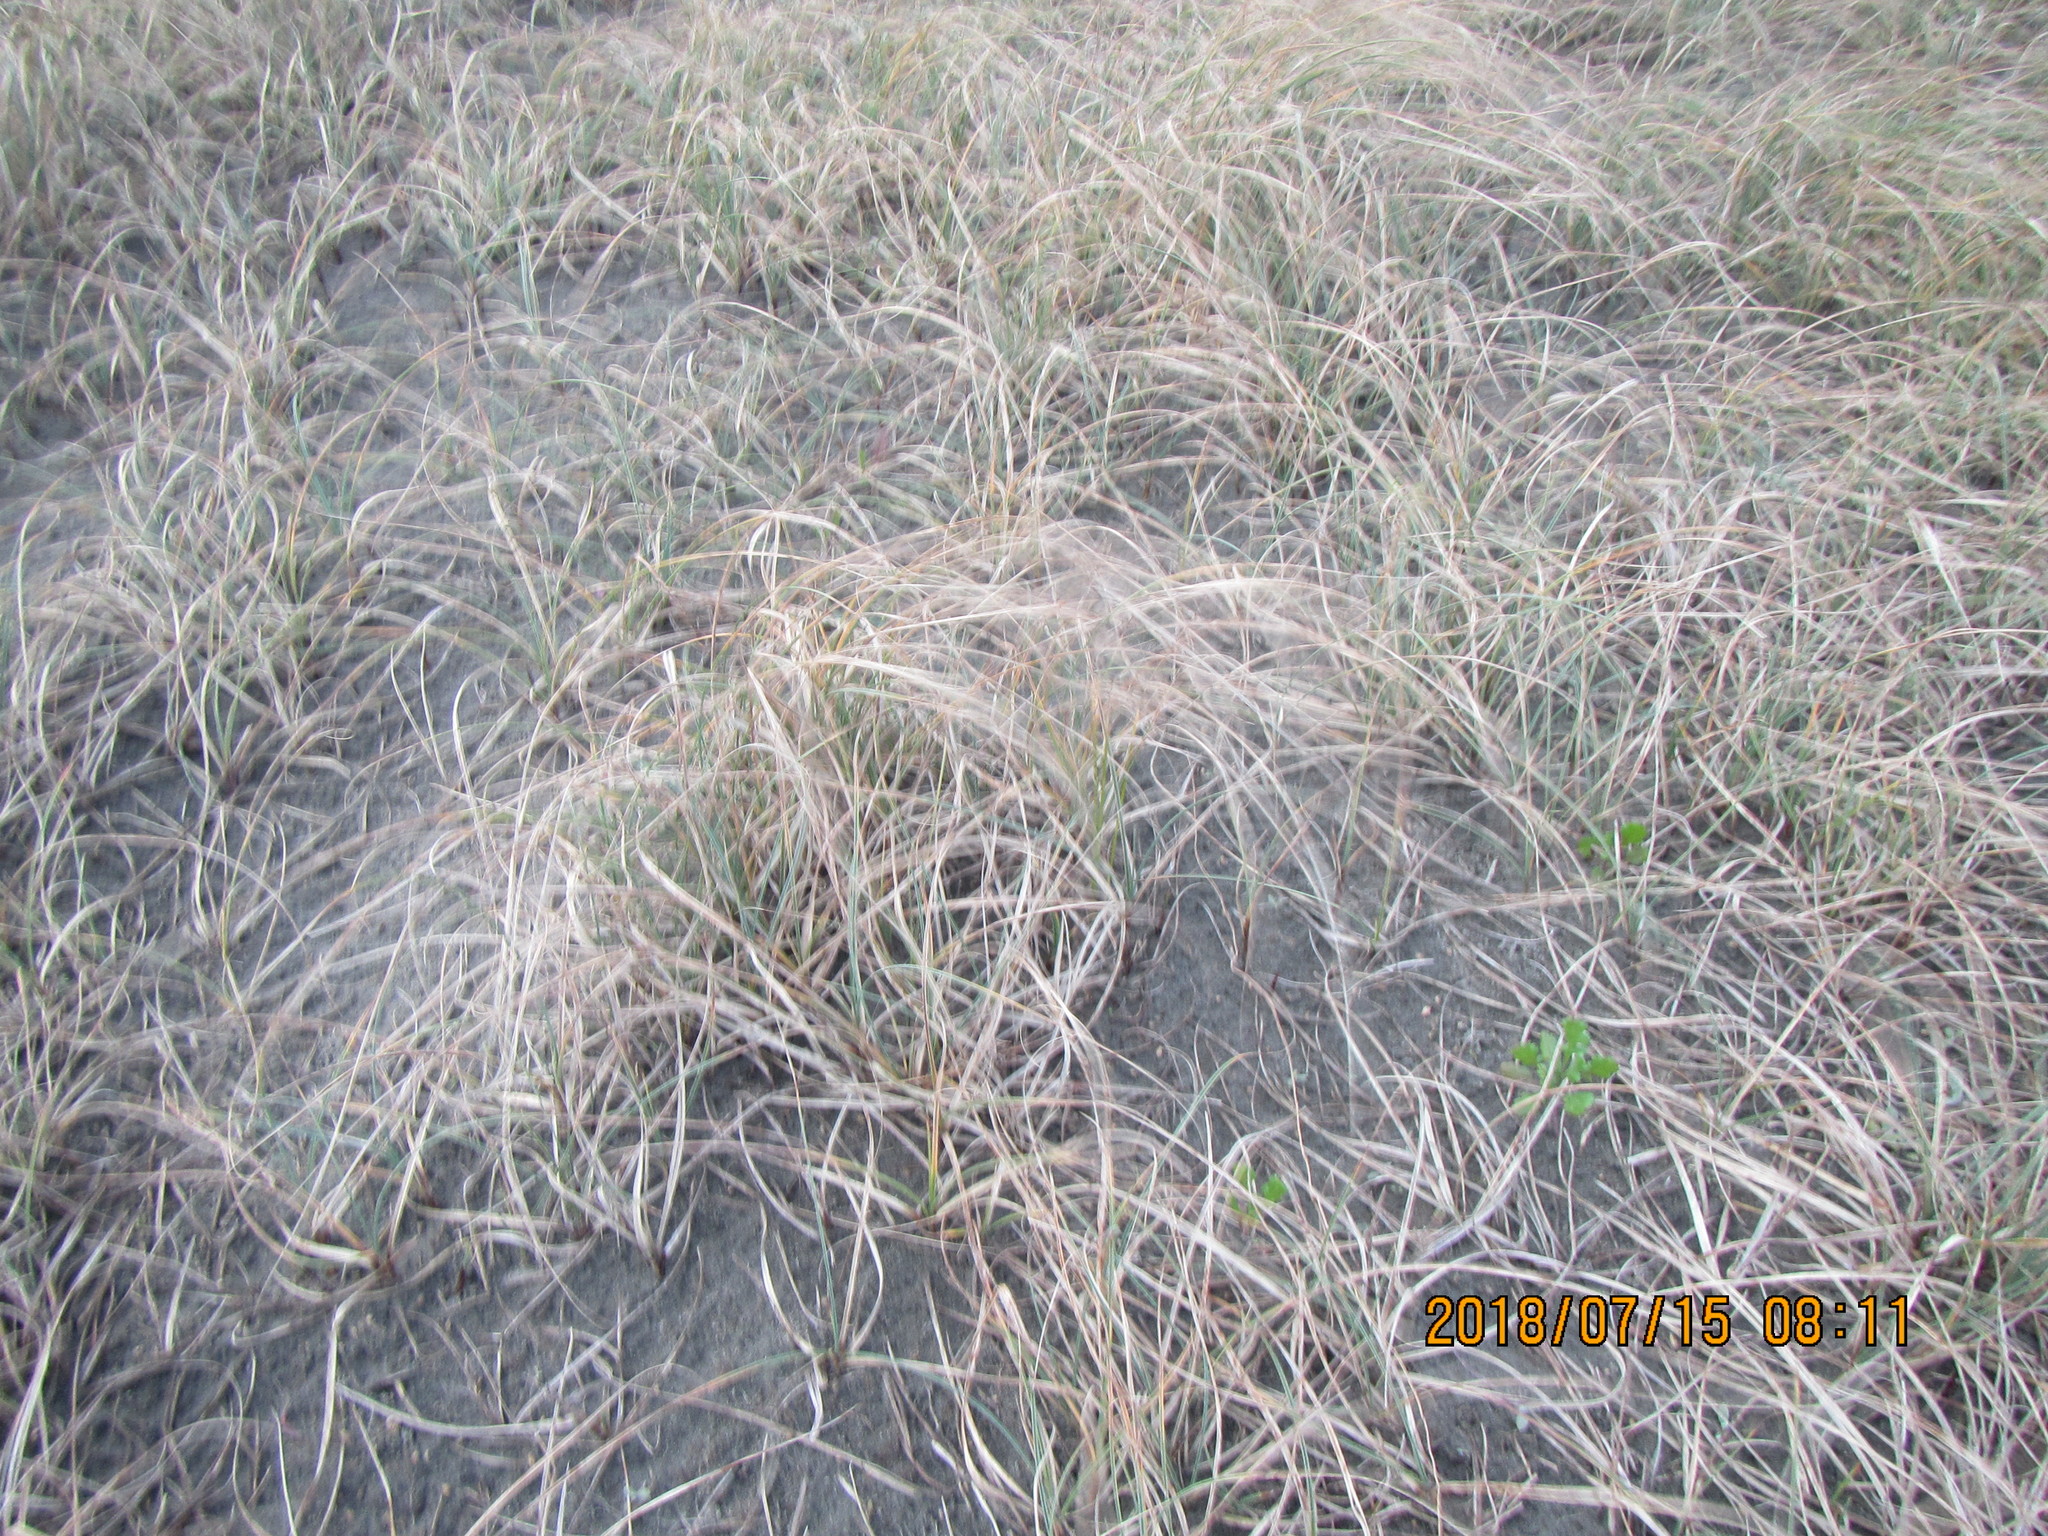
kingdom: Plantae
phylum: Tracheophyta
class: Liliopsida
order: Poales
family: Cyperaceae
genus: Carex
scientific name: Carex pumila
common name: Dwarf sedge
